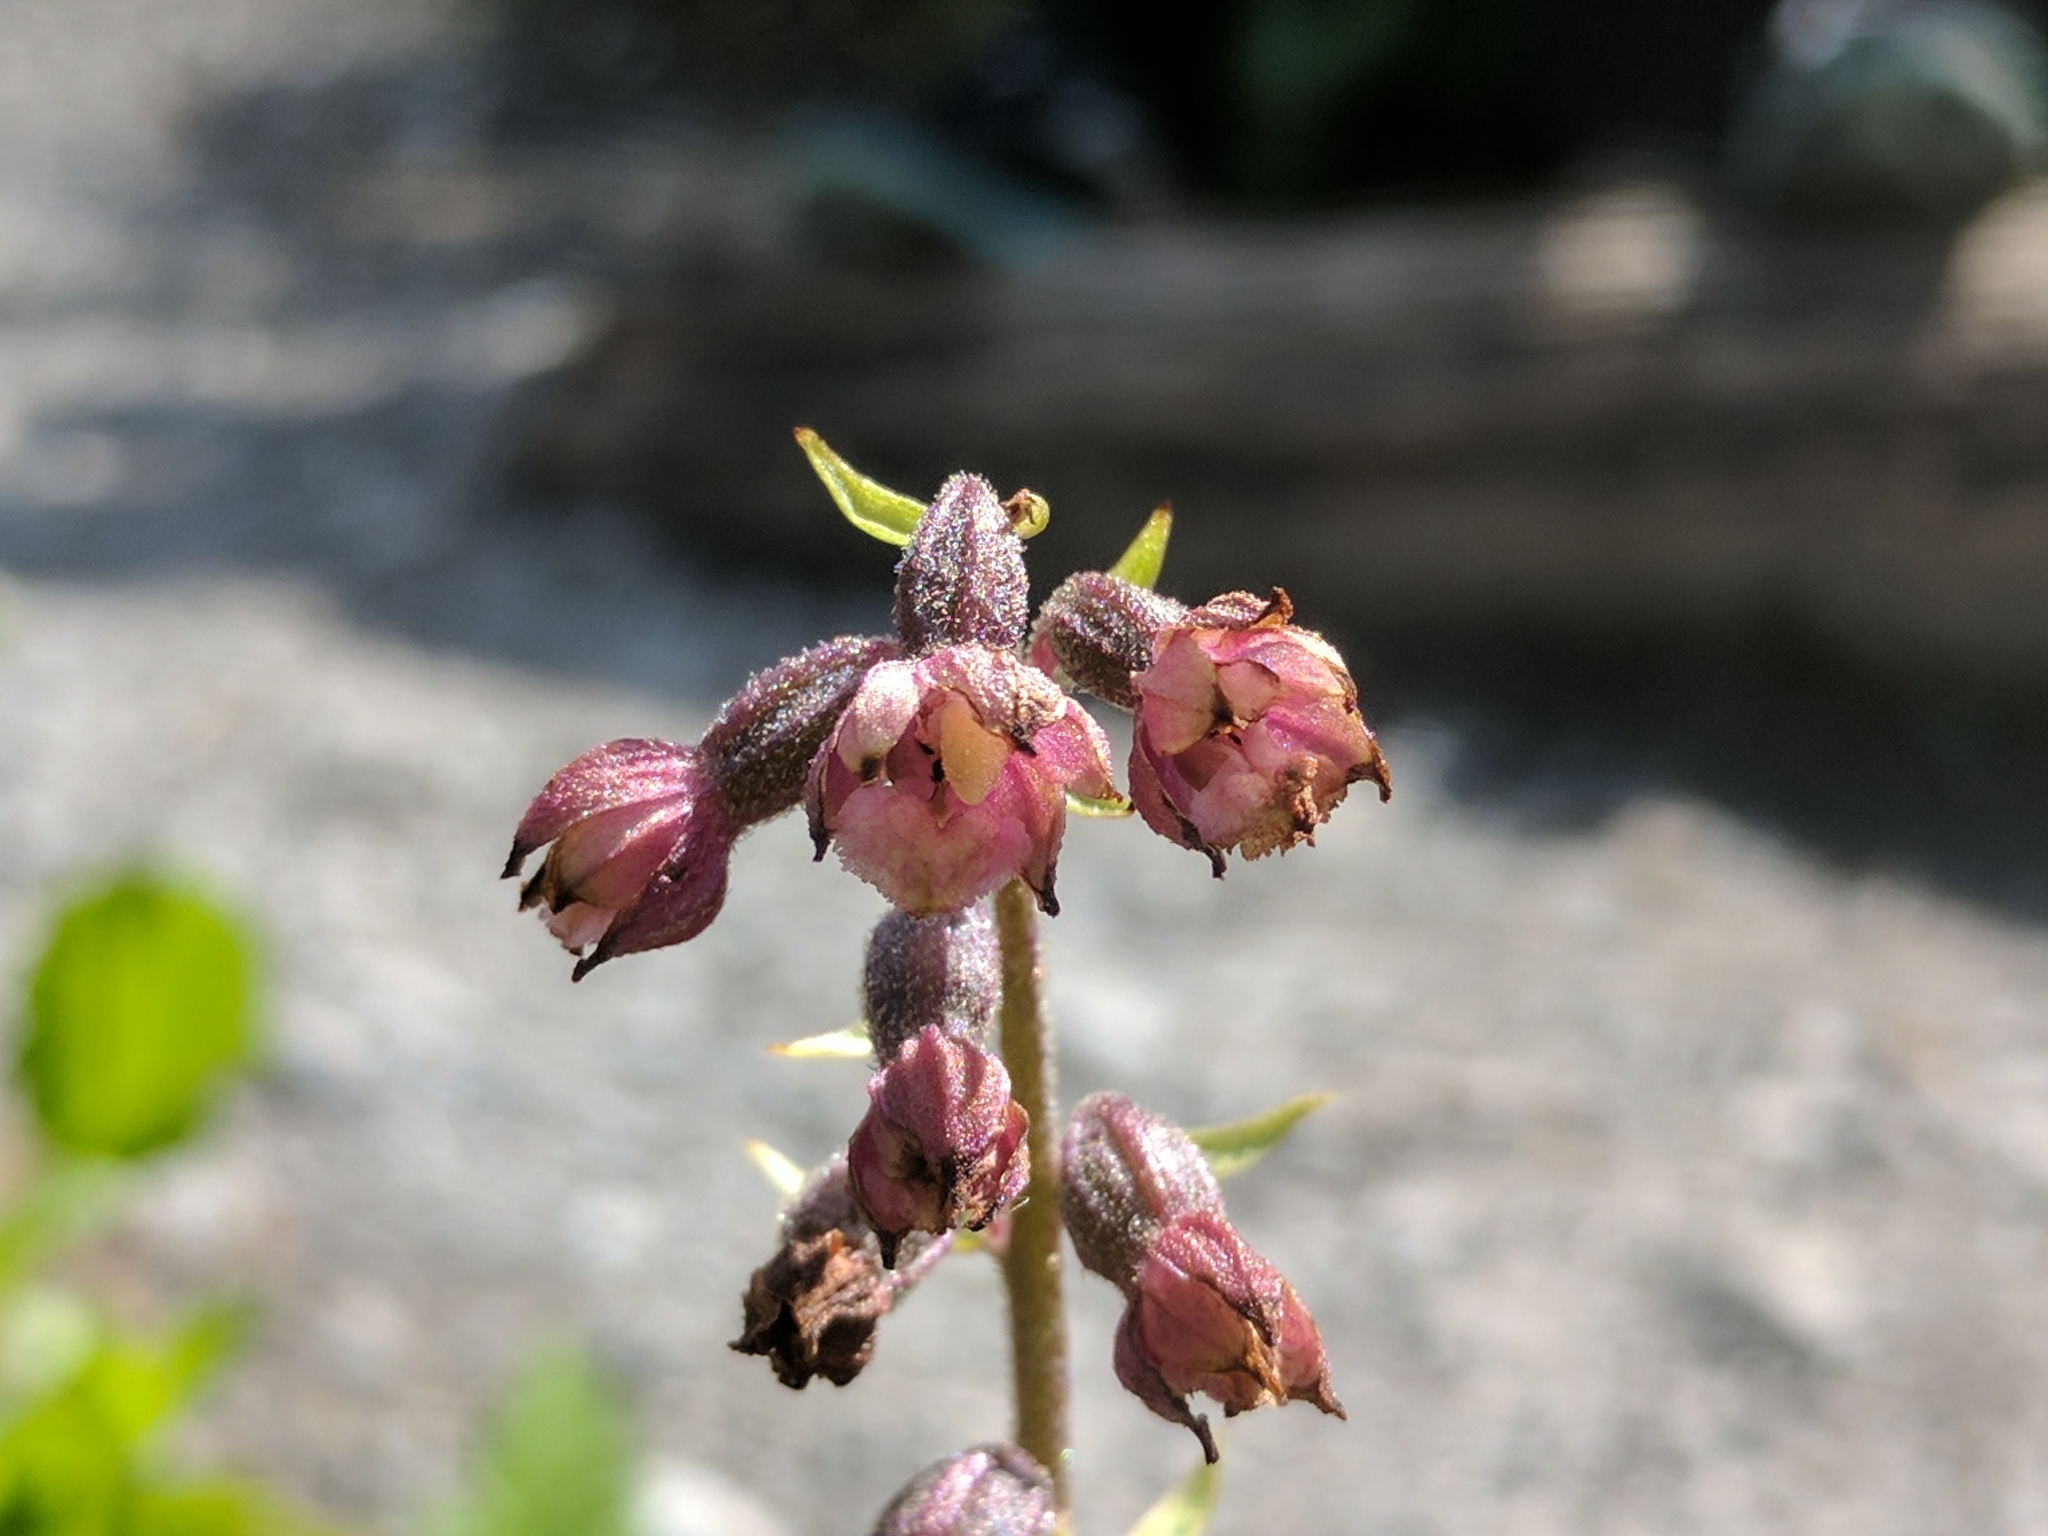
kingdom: Plantae
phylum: Tracheophyta
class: Liliopsida
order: Asparagales
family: Orchidaceae
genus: Epipactis
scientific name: Epipactis atrorubens
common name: Dark-red helleborine
